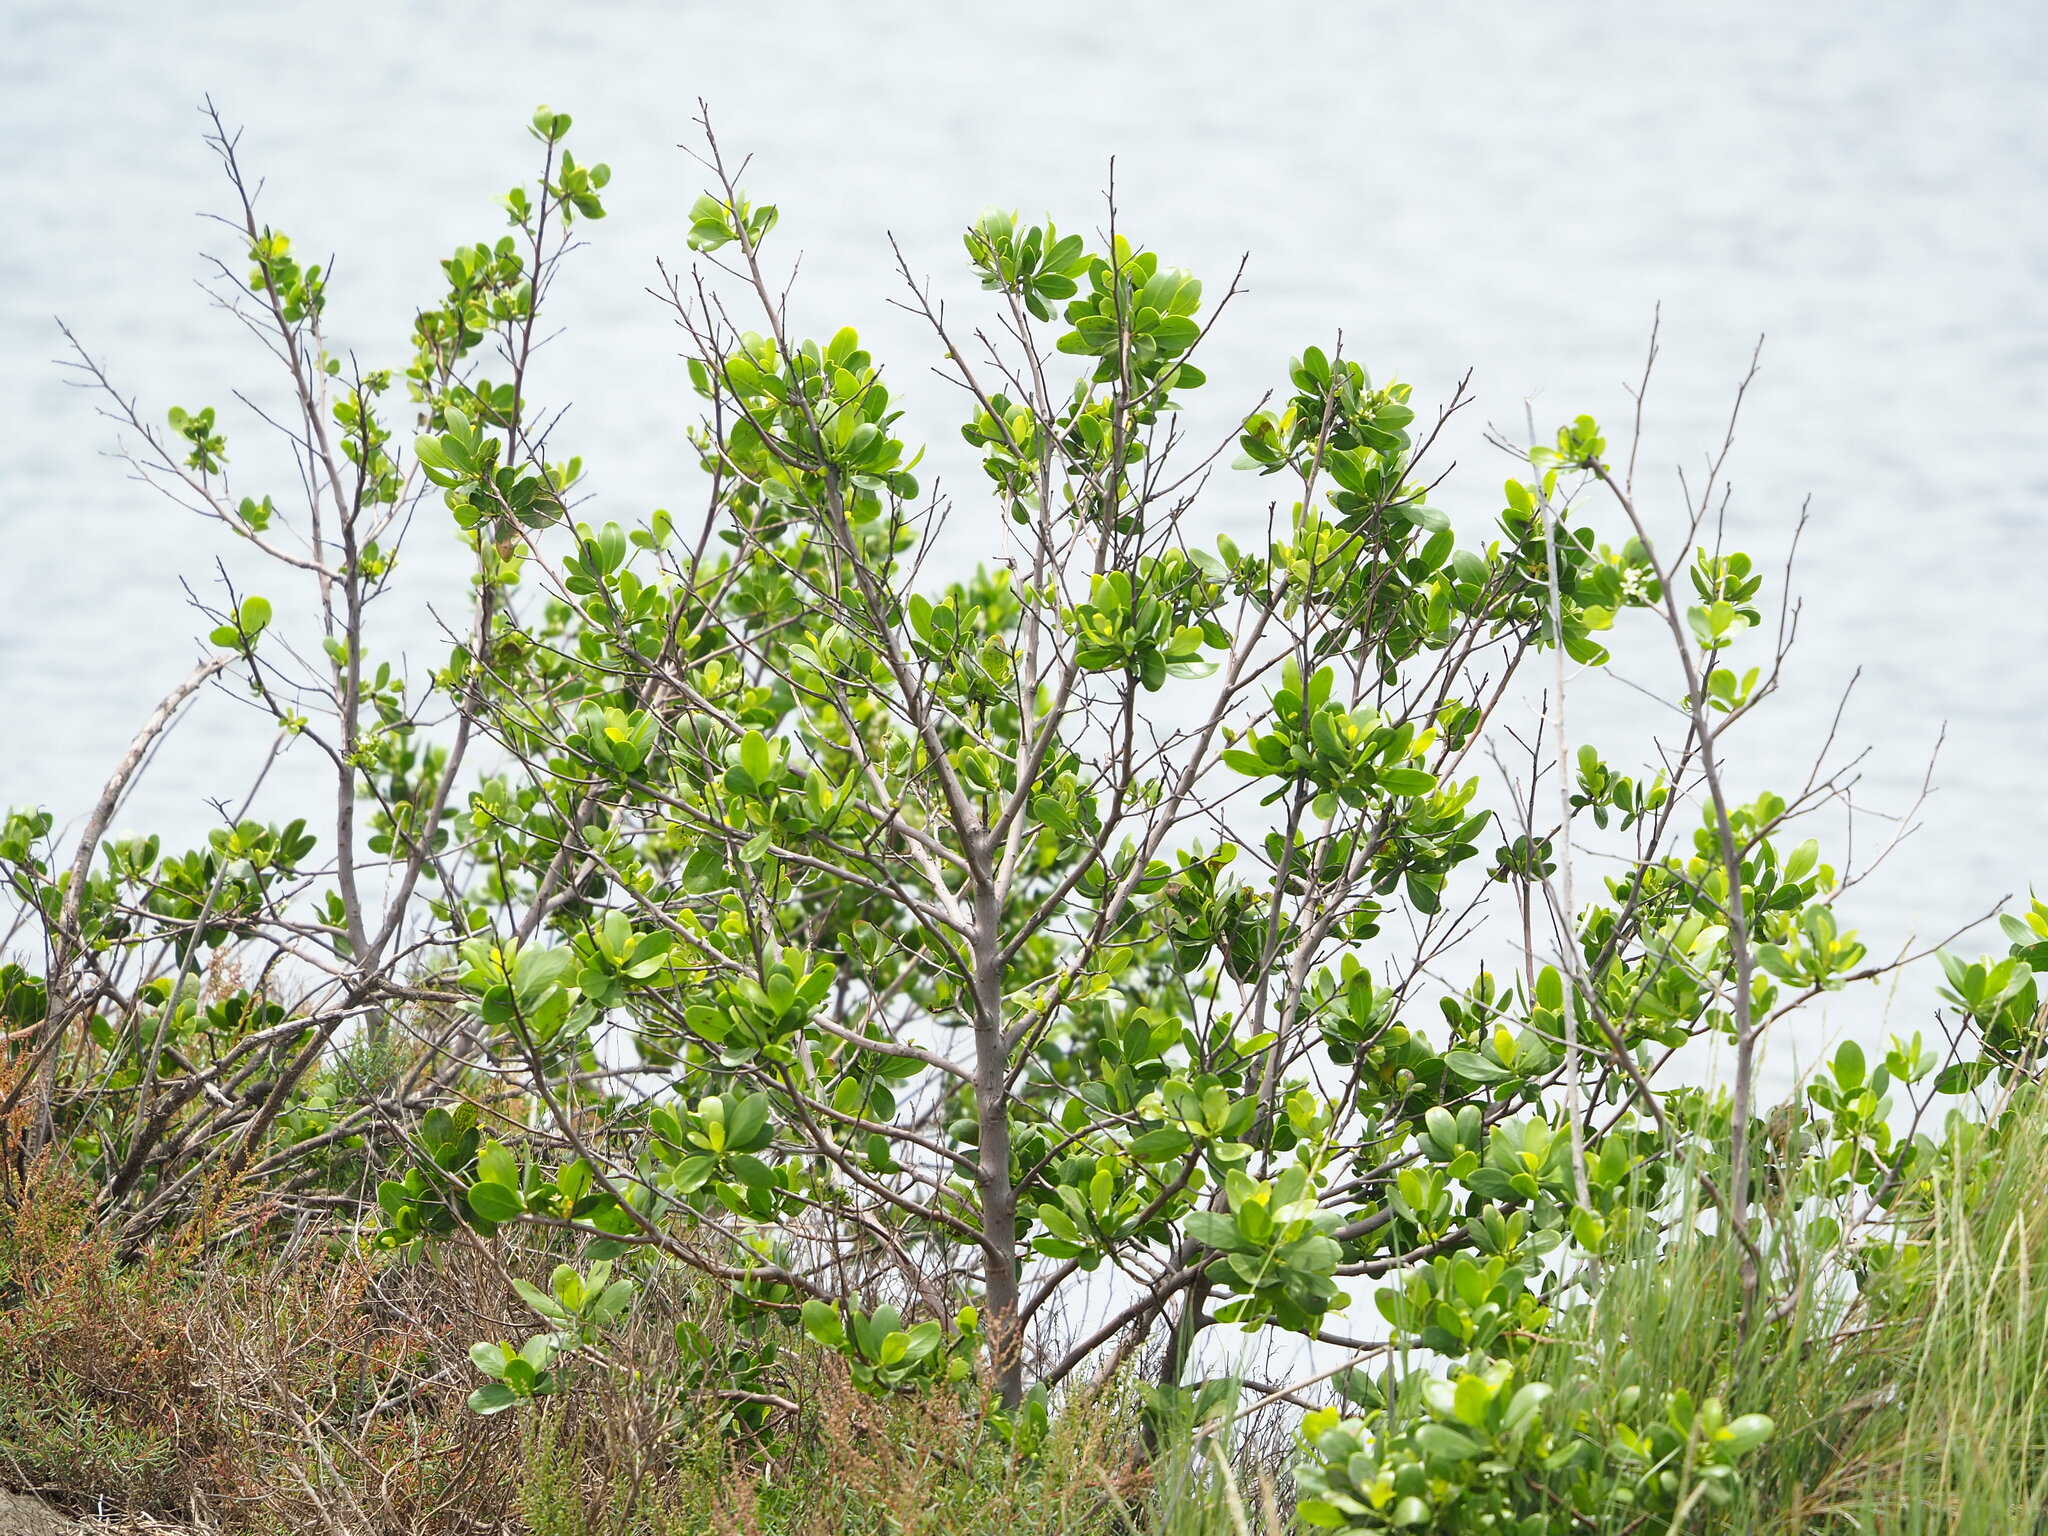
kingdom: Plantae
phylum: Tracheophyta
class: Magnoliopsida
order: Myrtales
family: Combretaceae
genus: Lumnitzera
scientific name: Lumnitzera racemosa
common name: White-flowered black mangrove
